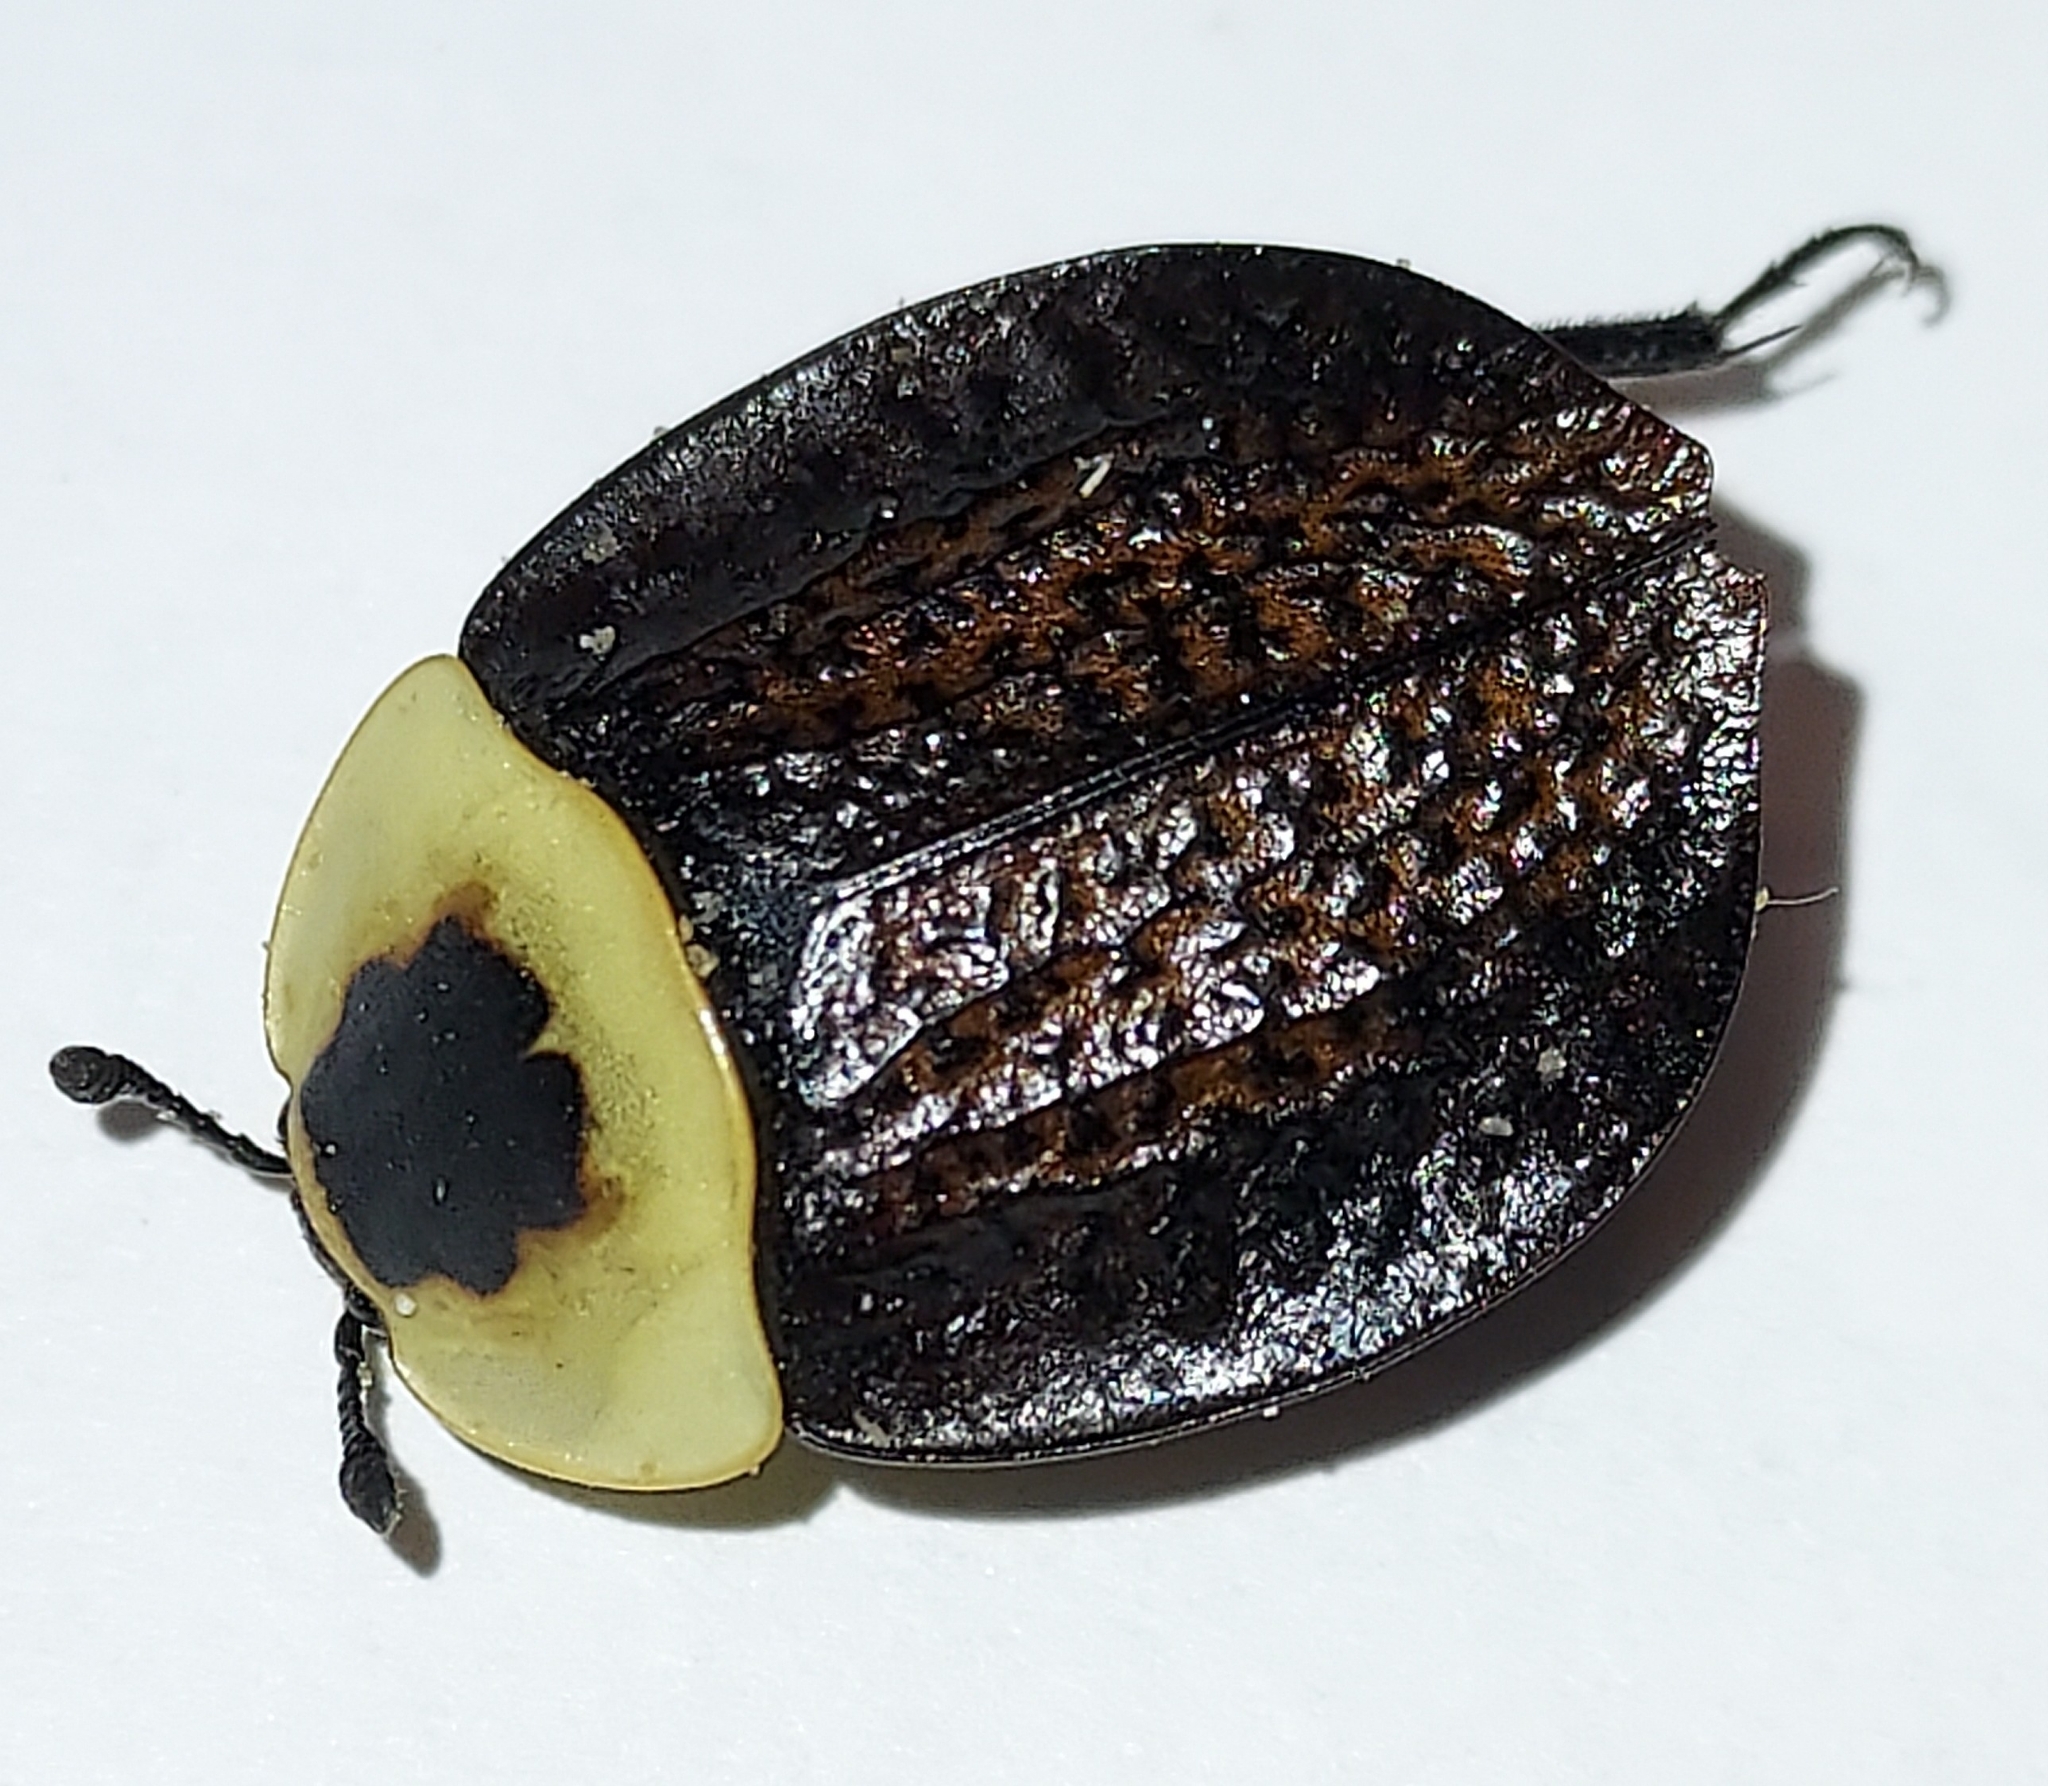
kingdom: Animalia
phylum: Arthropoda
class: Insecta
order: Coleoptera
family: Staphylinidae
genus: Necrophila
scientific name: Necrophila americana
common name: American carrion beetle
